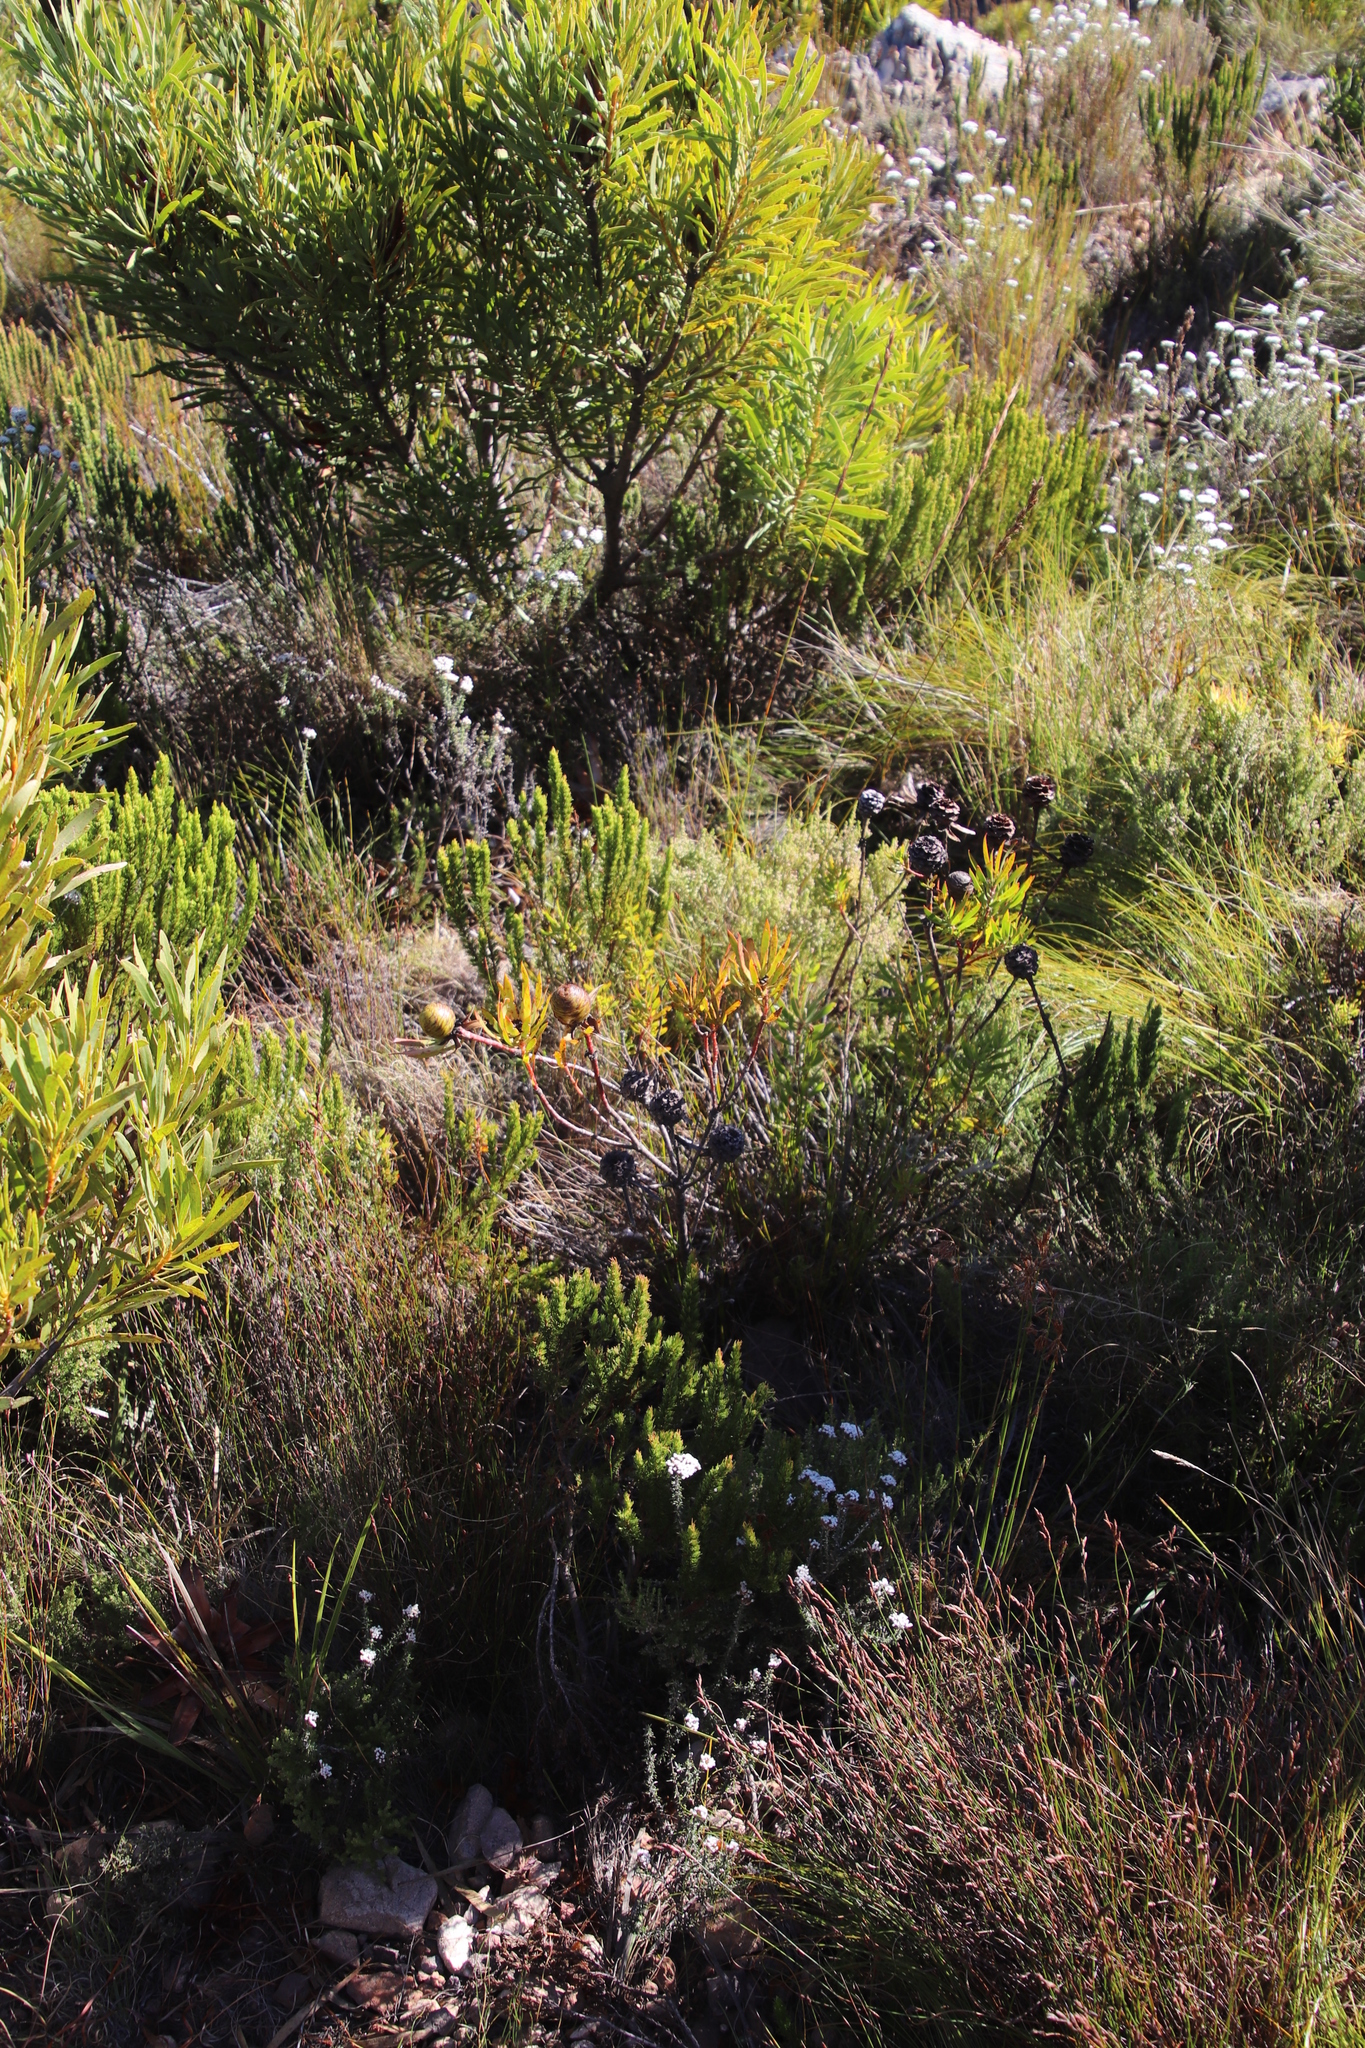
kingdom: Plantae
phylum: Tracheophyta
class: Magnoliopsida
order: Proteales
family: Proteaceae
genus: Leucadendron
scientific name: Leucadendron spissifolium
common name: Spear-leaf conebush
